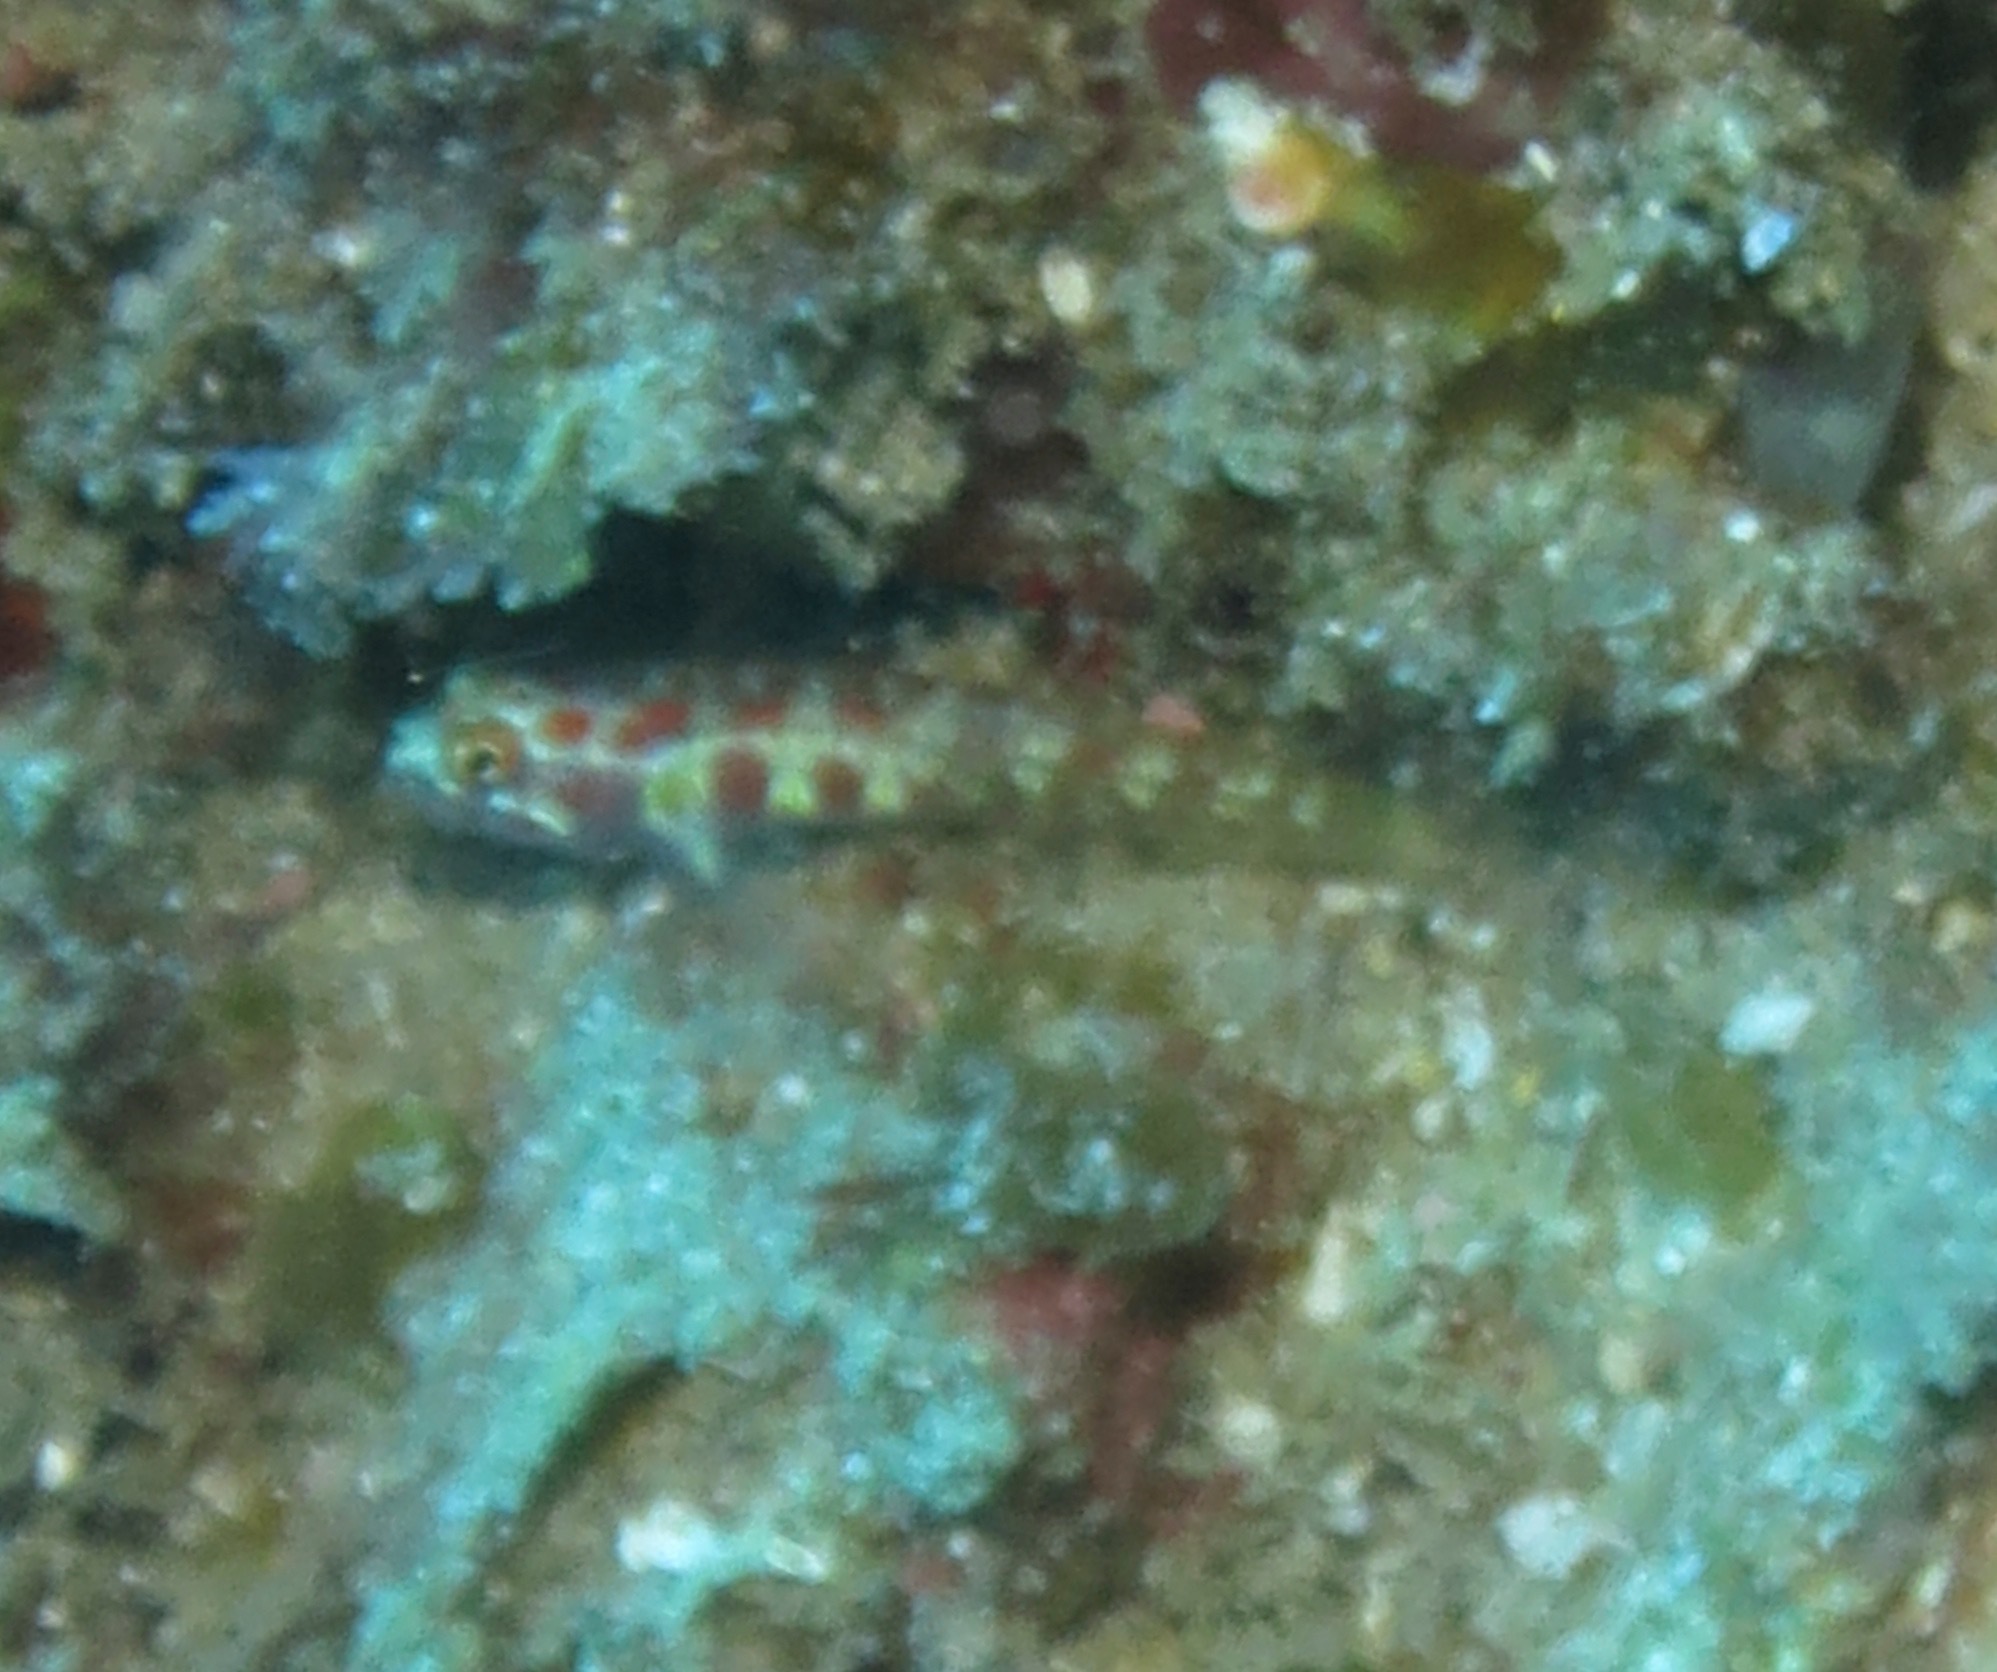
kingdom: Animalia
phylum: Chordata
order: Perciformes
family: Gobiidae
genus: Eviota
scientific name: Eviota guttata
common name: Green pygmy-goby
